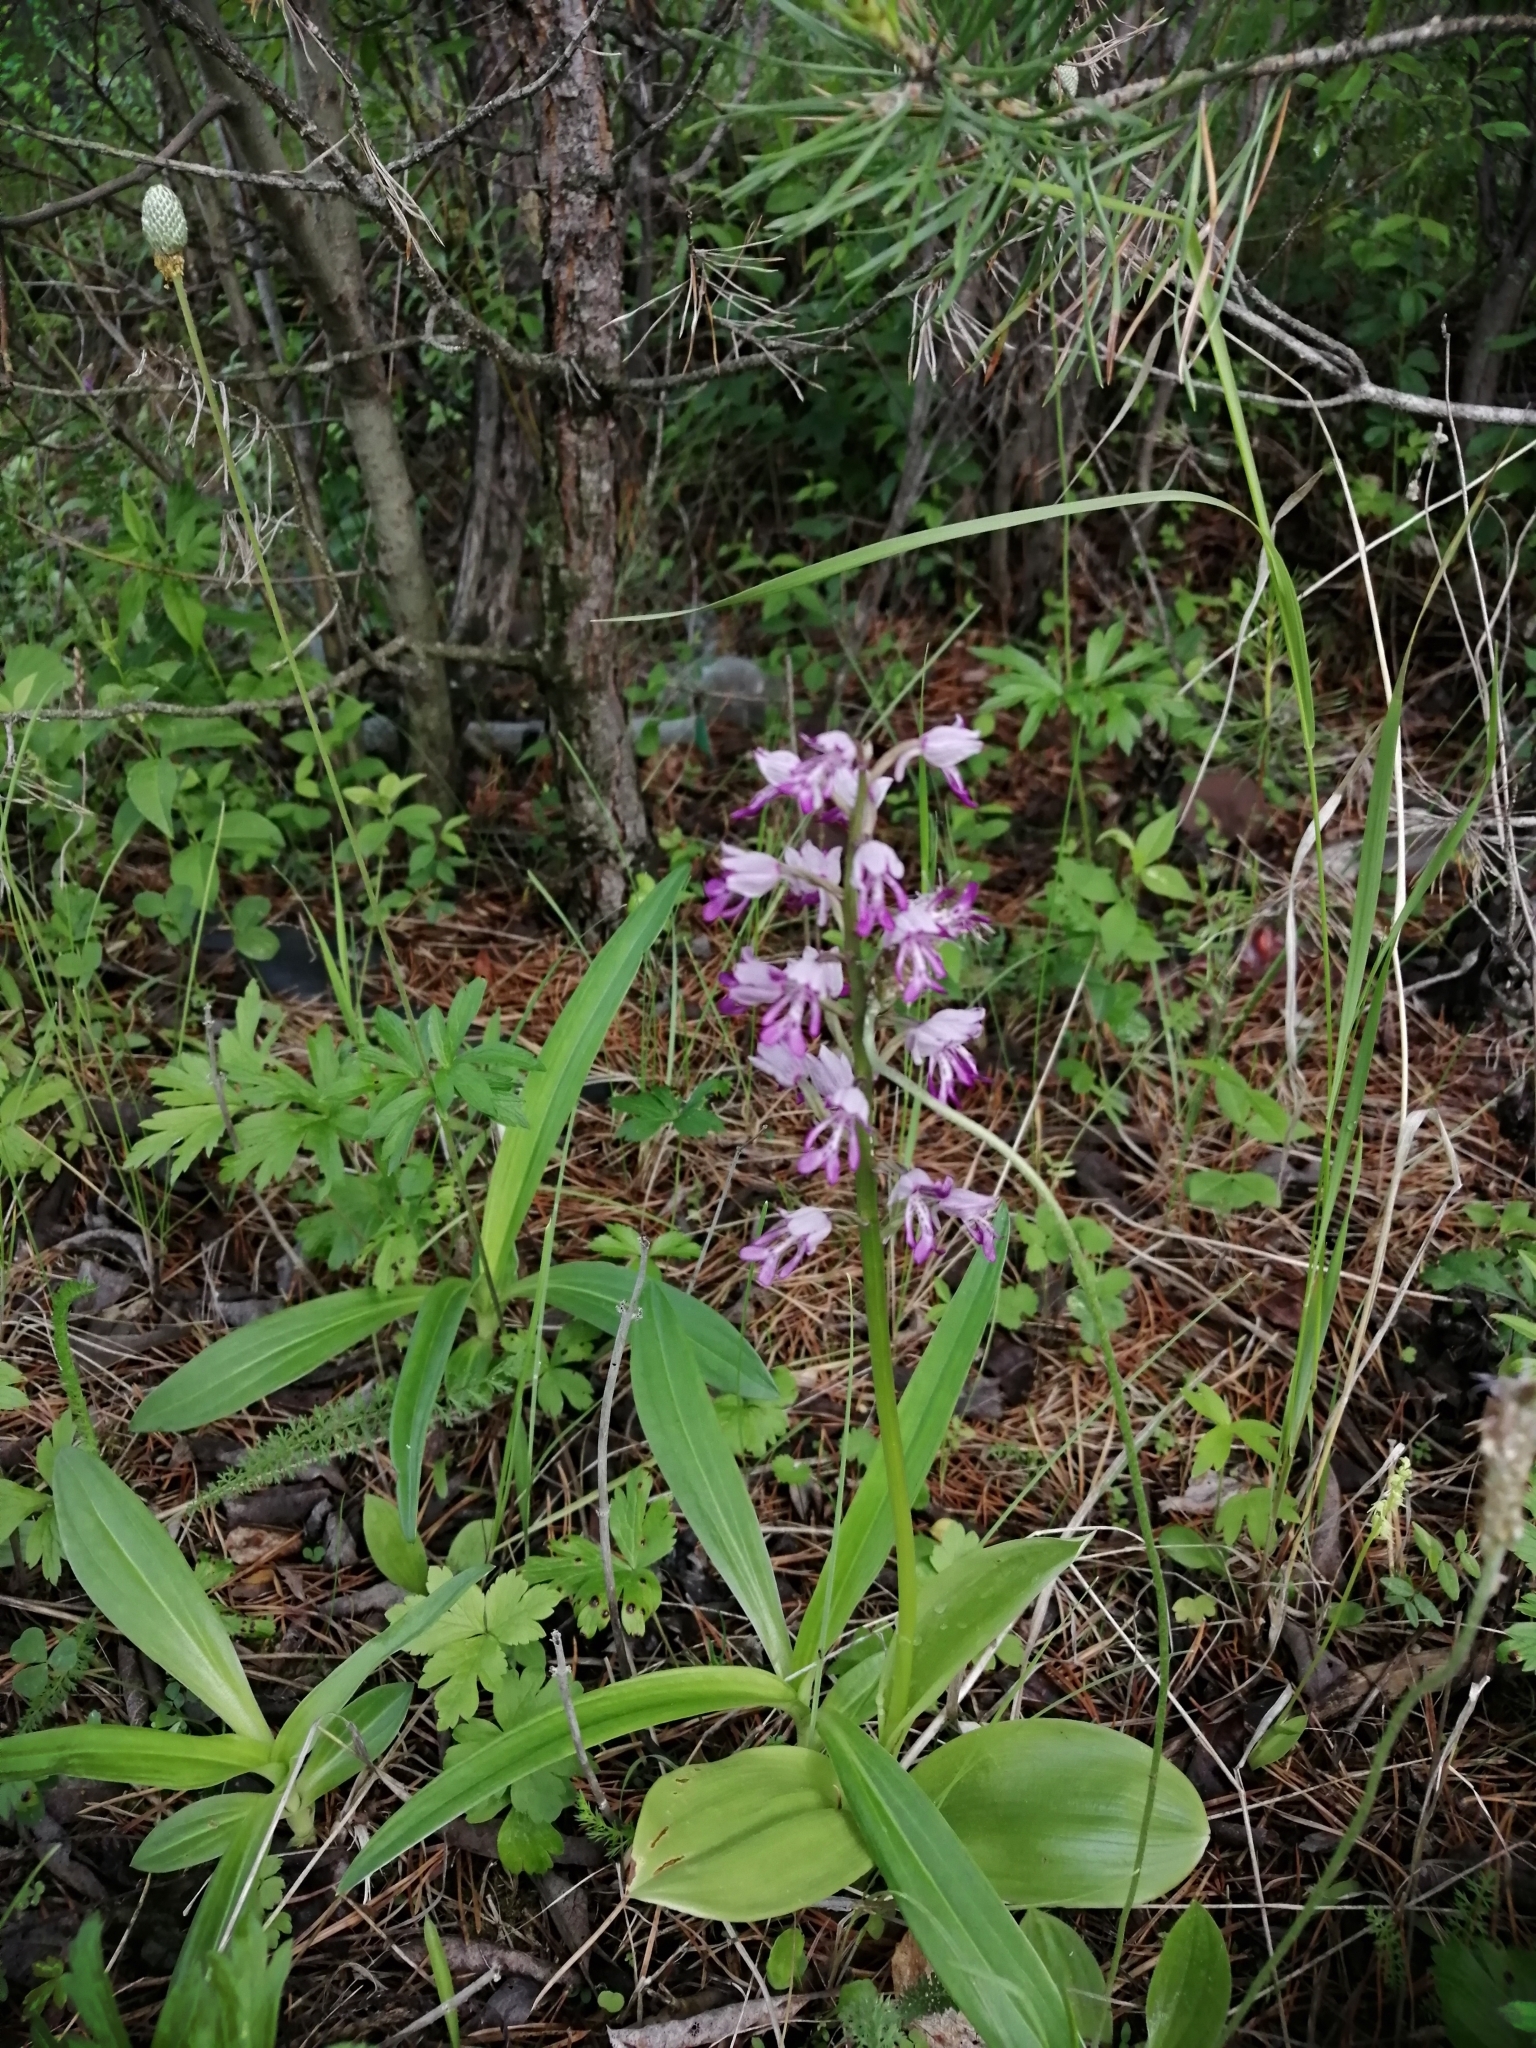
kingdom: Plantae
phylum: Tracheophyta
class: Liliopsida
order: Asparagales
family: Orchidaceae
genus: Orchis
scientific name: Orchis militaris
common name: Military orchid
